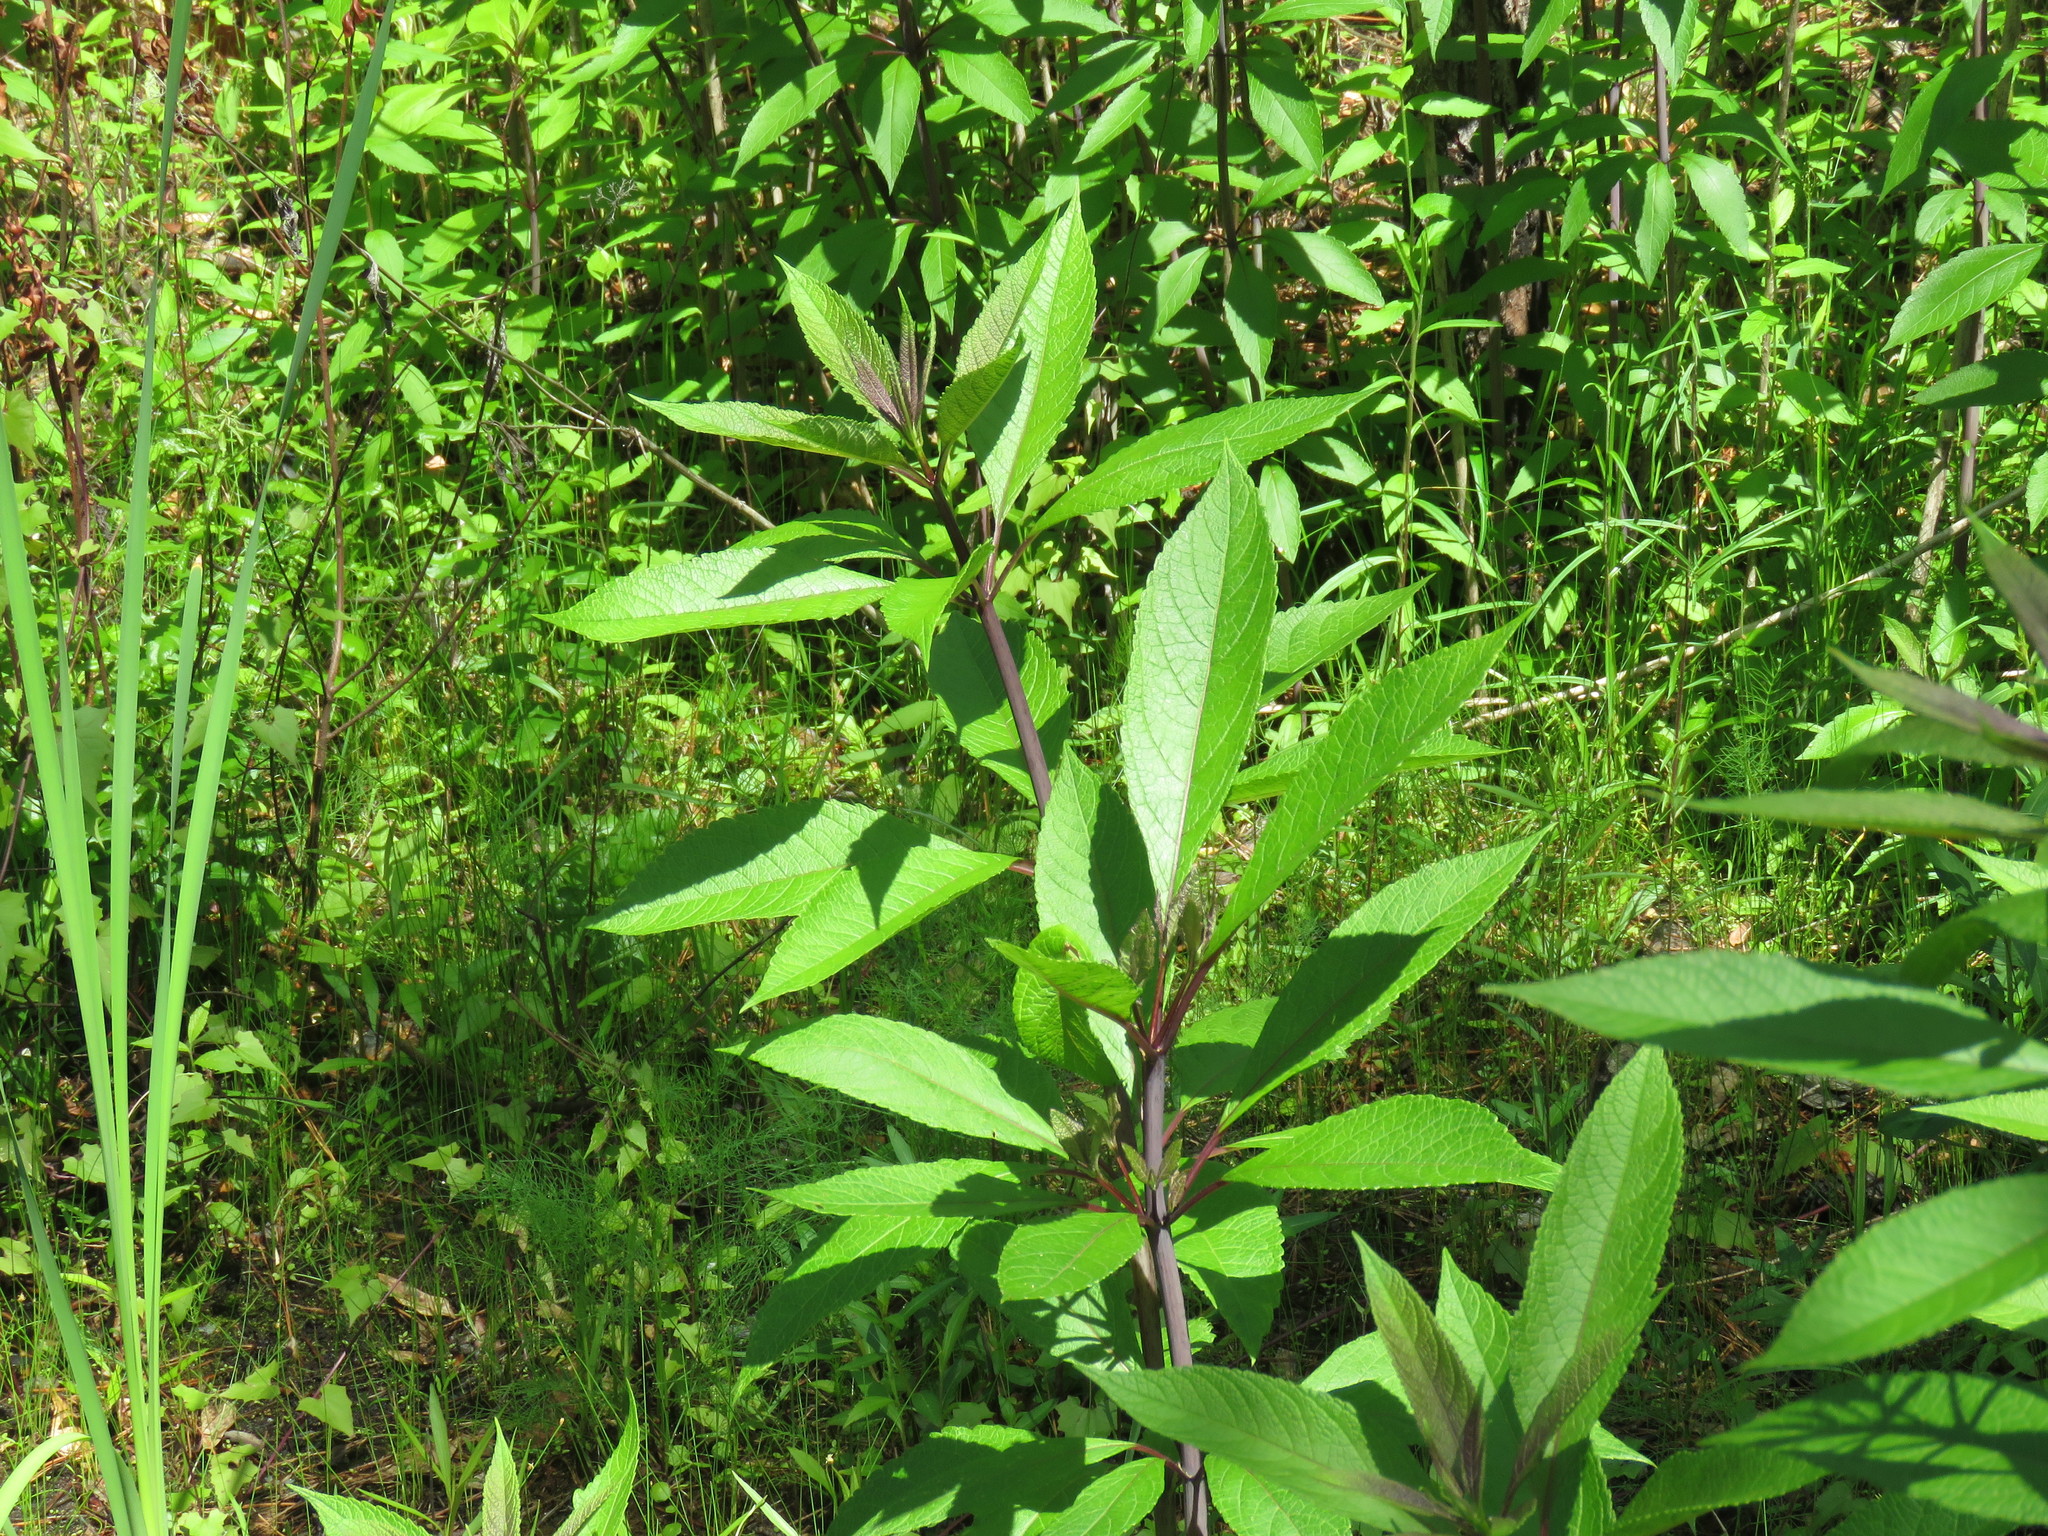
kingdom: Plantae
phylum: Tracheophyta
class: Magnoliopsida
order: Asterales
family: Asteraceae
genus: Eutrochium
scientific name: Eutrochium fistulosum
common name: Trumpetweed
